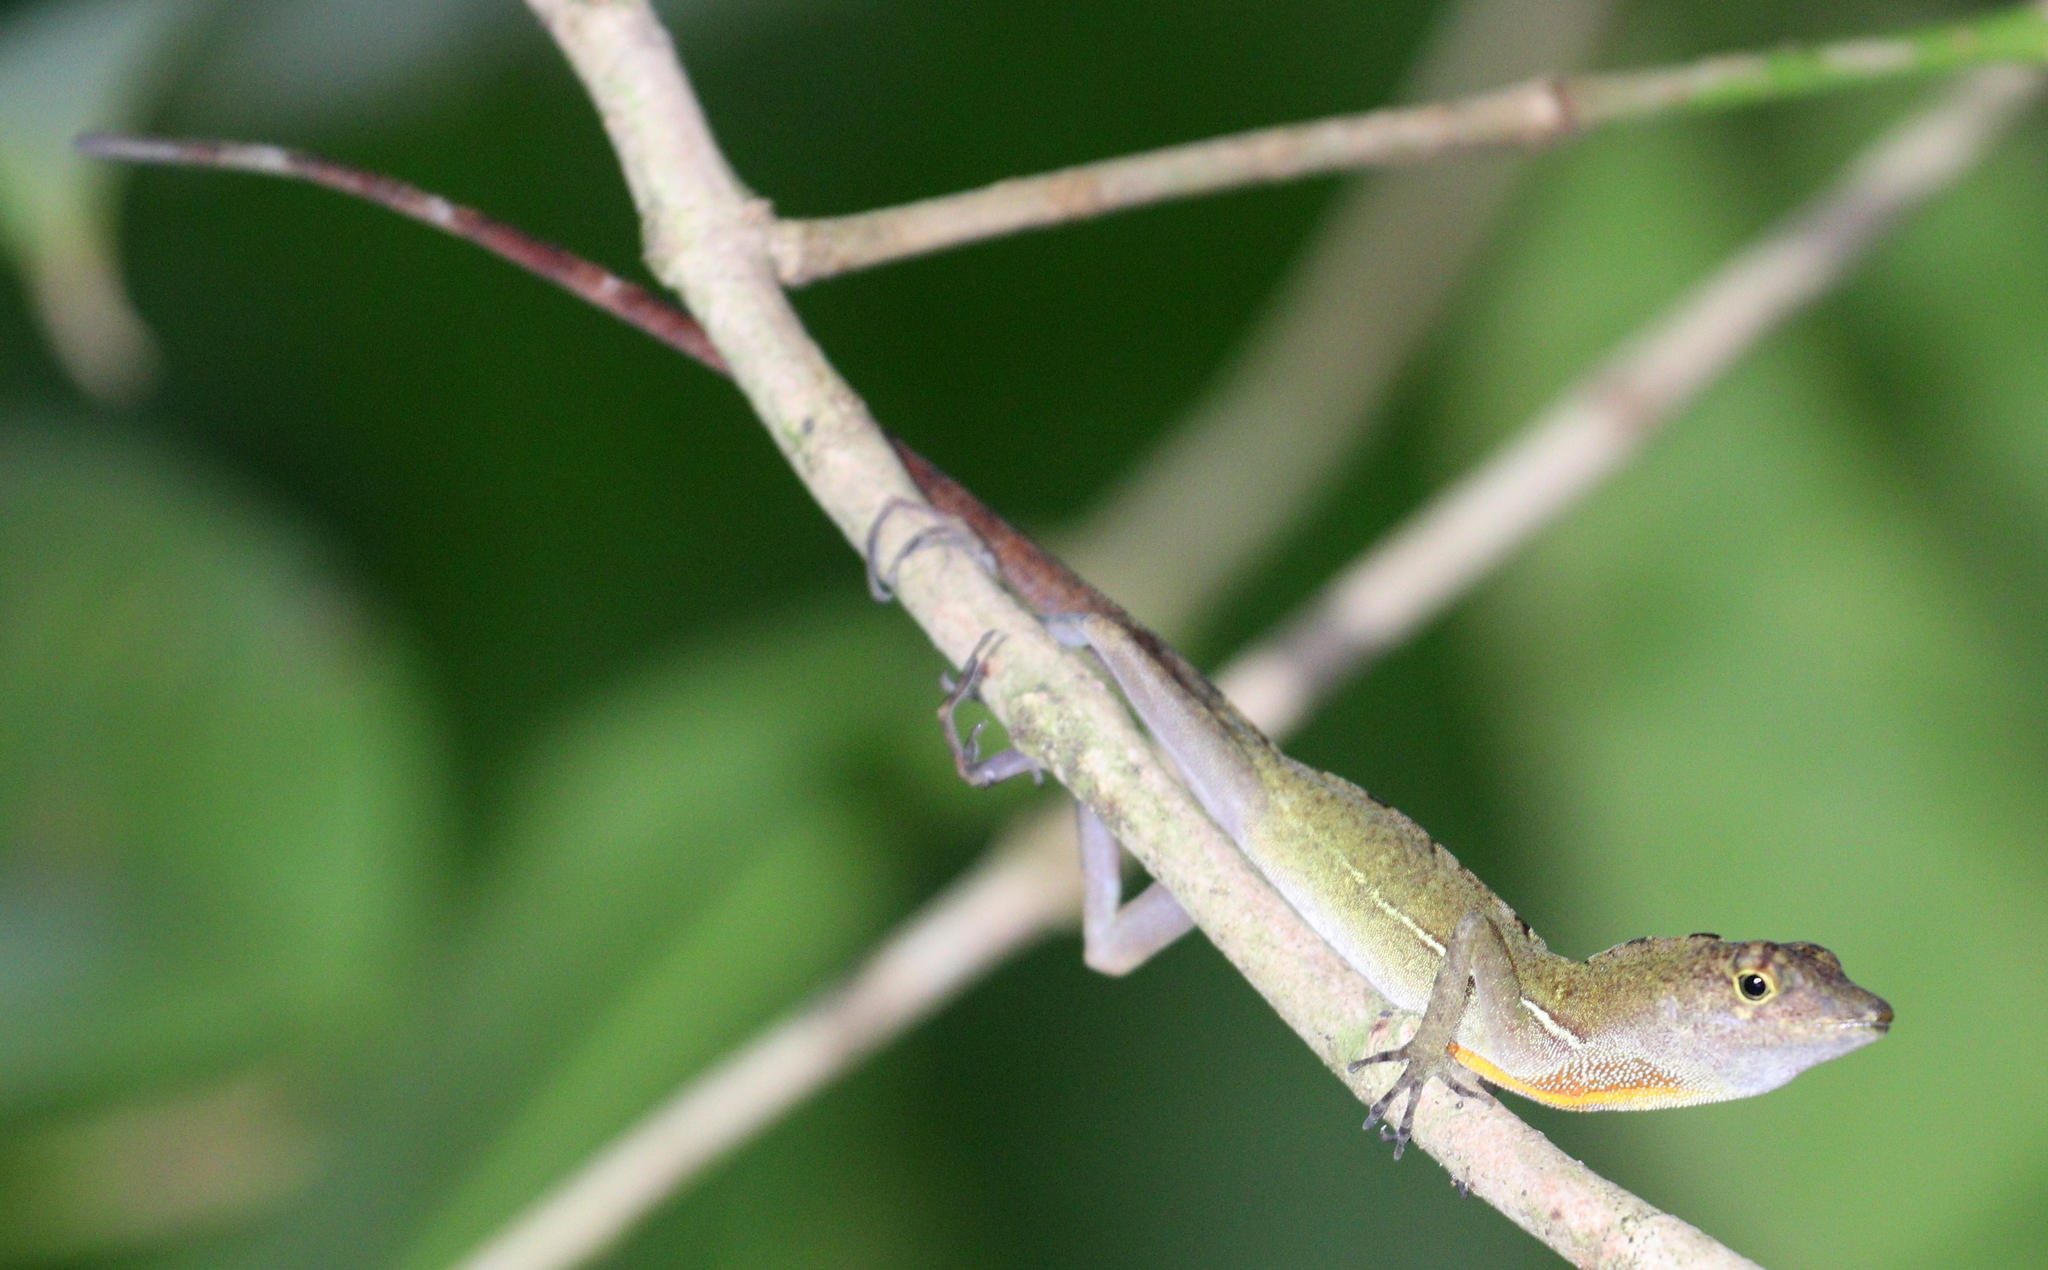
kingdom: Animalia
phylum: Chordata
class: Squamata
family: Dactyloidae
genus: Anolis
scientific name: Anolis osa
